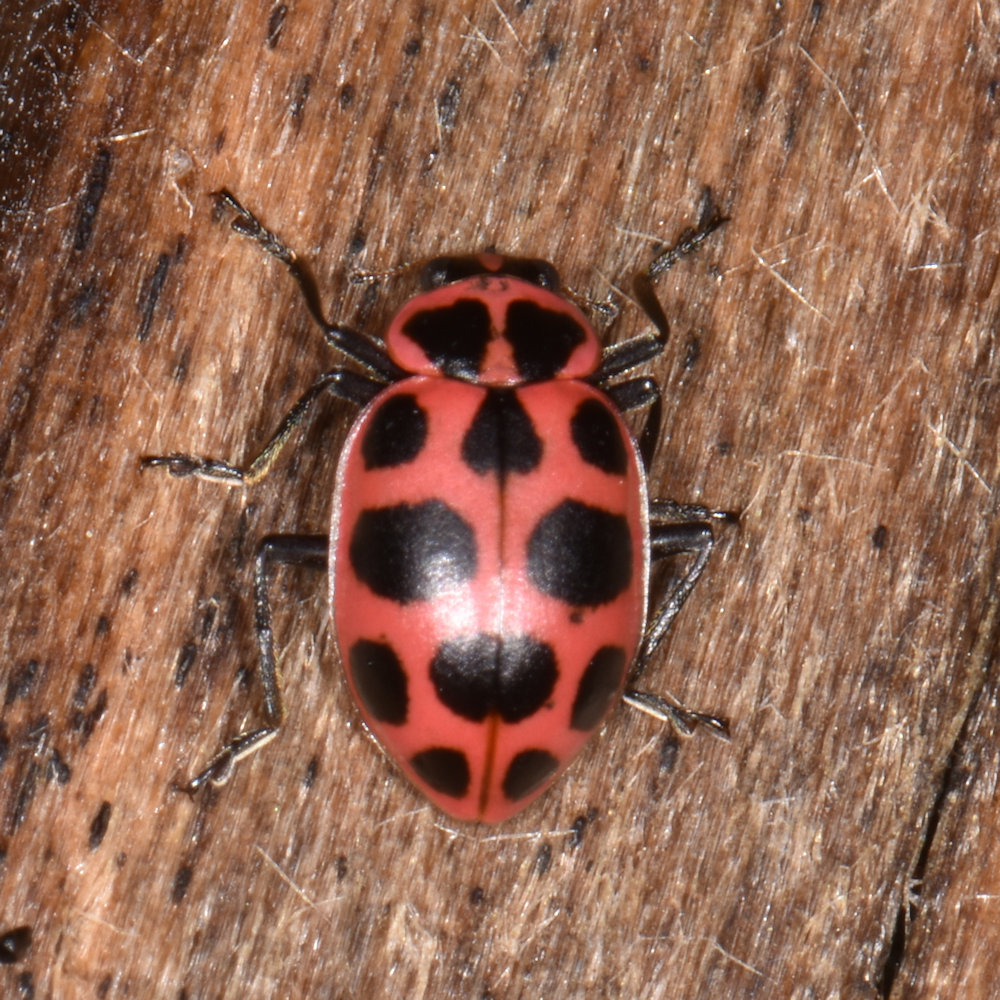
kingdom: Animalia
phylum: Arthropoda
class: Insecta
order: Coleoptera
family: Coccinellidae
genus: Coleomegilla
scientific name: Coleomegilla maculata
